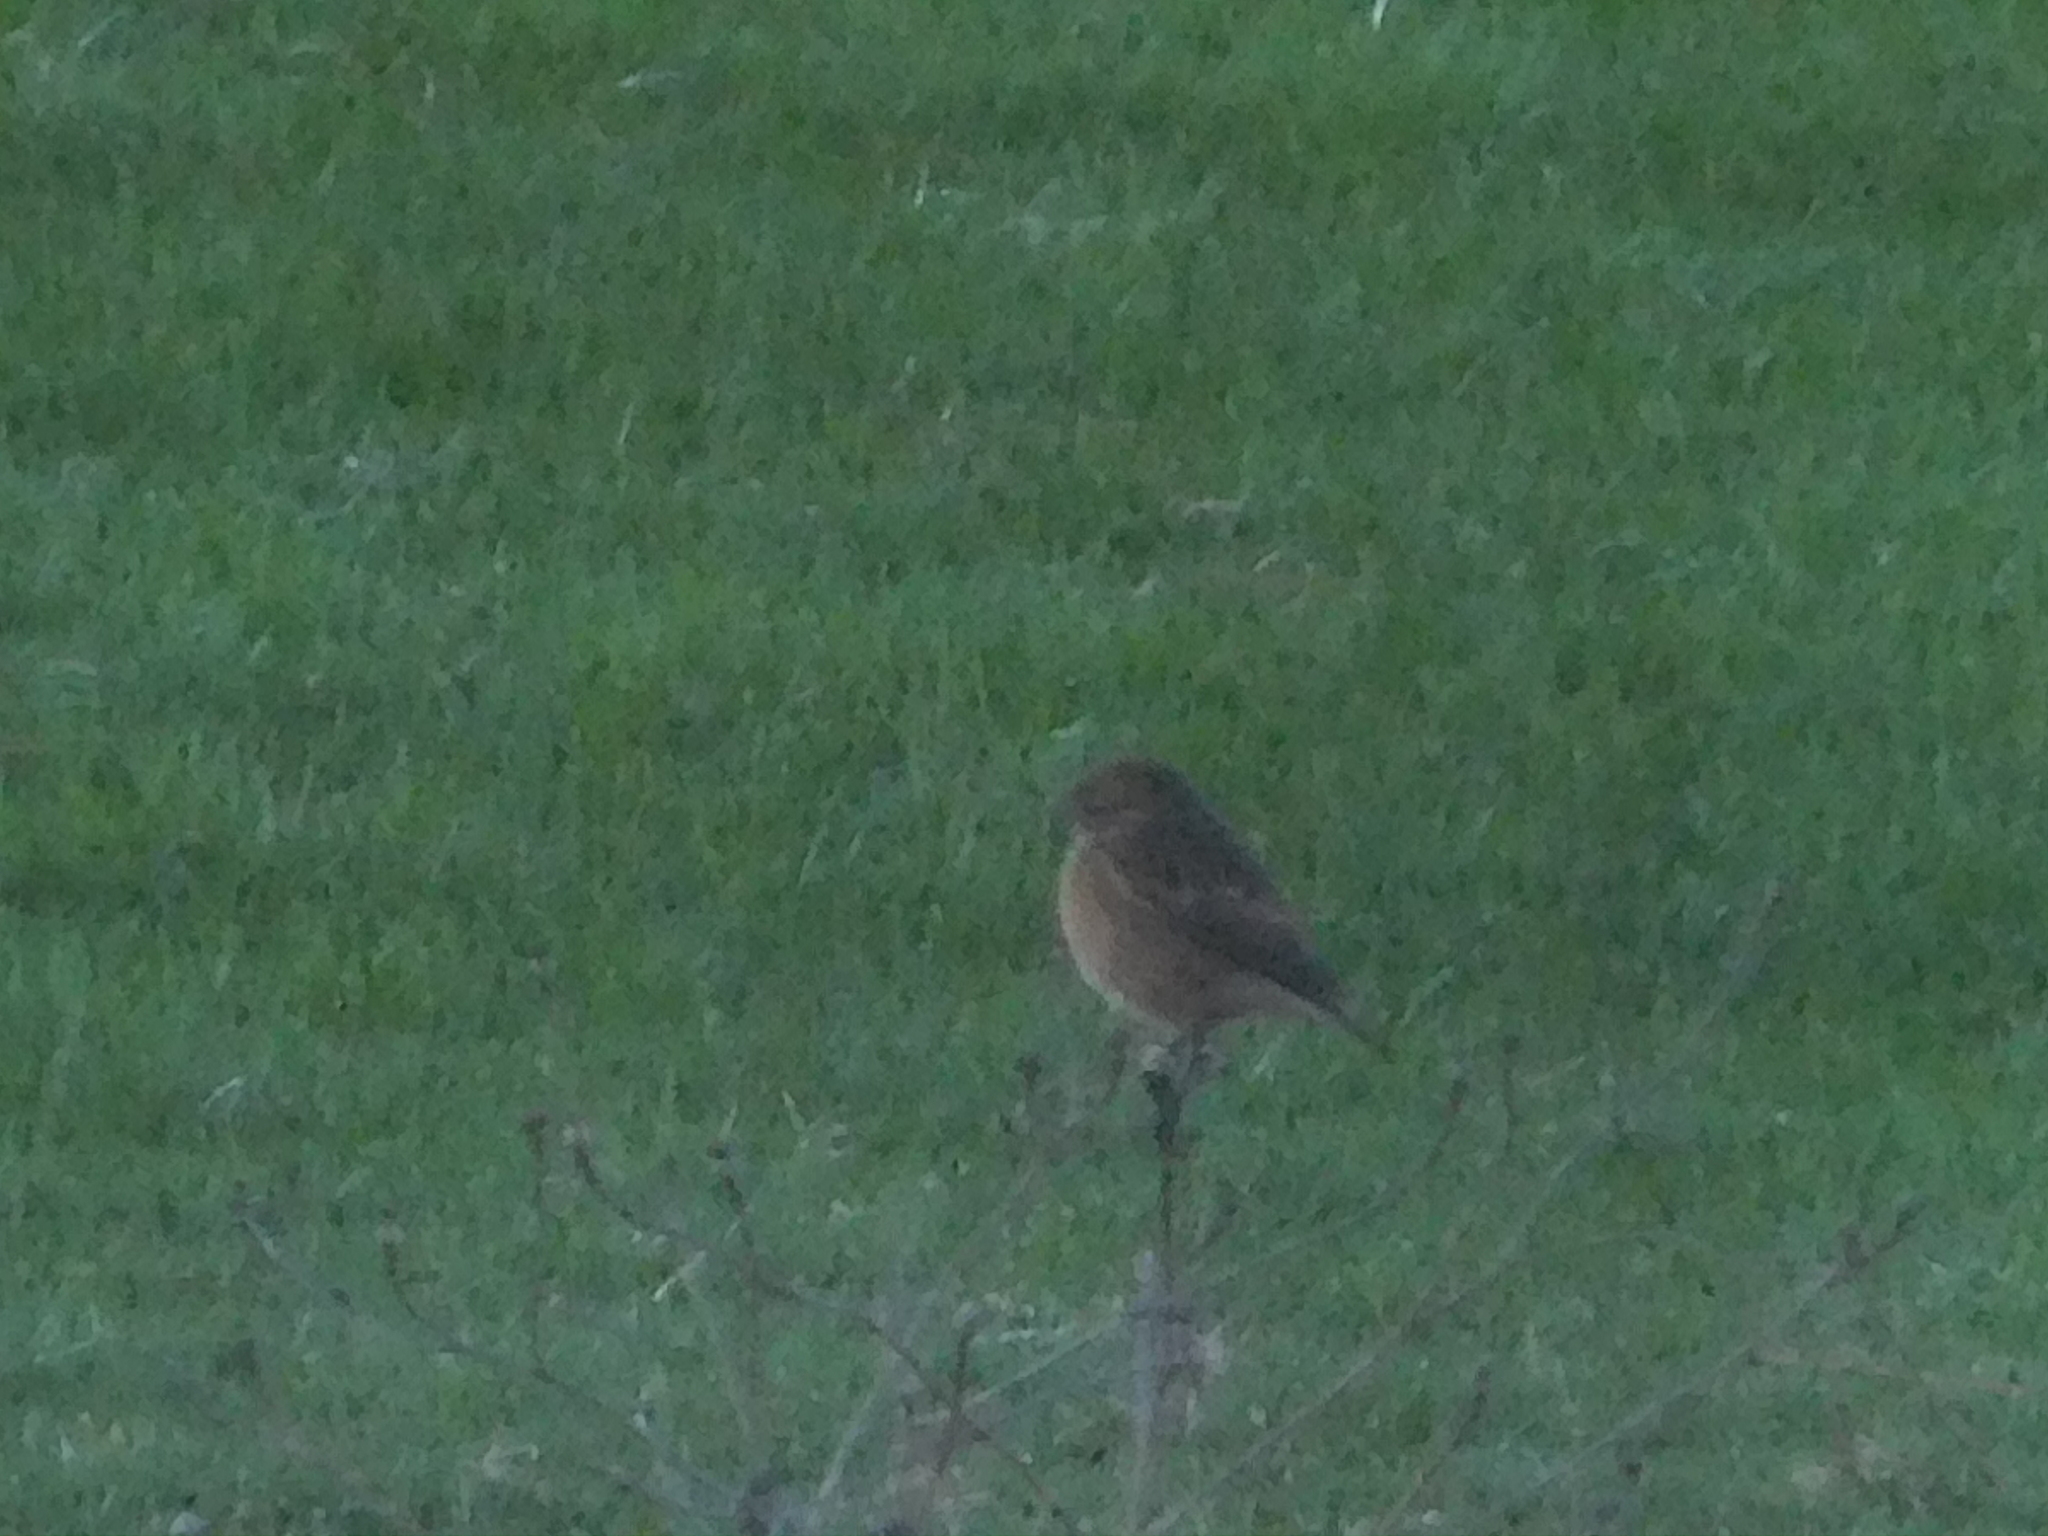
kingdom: Animalia
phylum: Chordata
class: Aves
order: Passeriformes
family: Muscicapidae
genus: Saxicola
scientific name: Saxicola rubicola
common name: European stonechat
